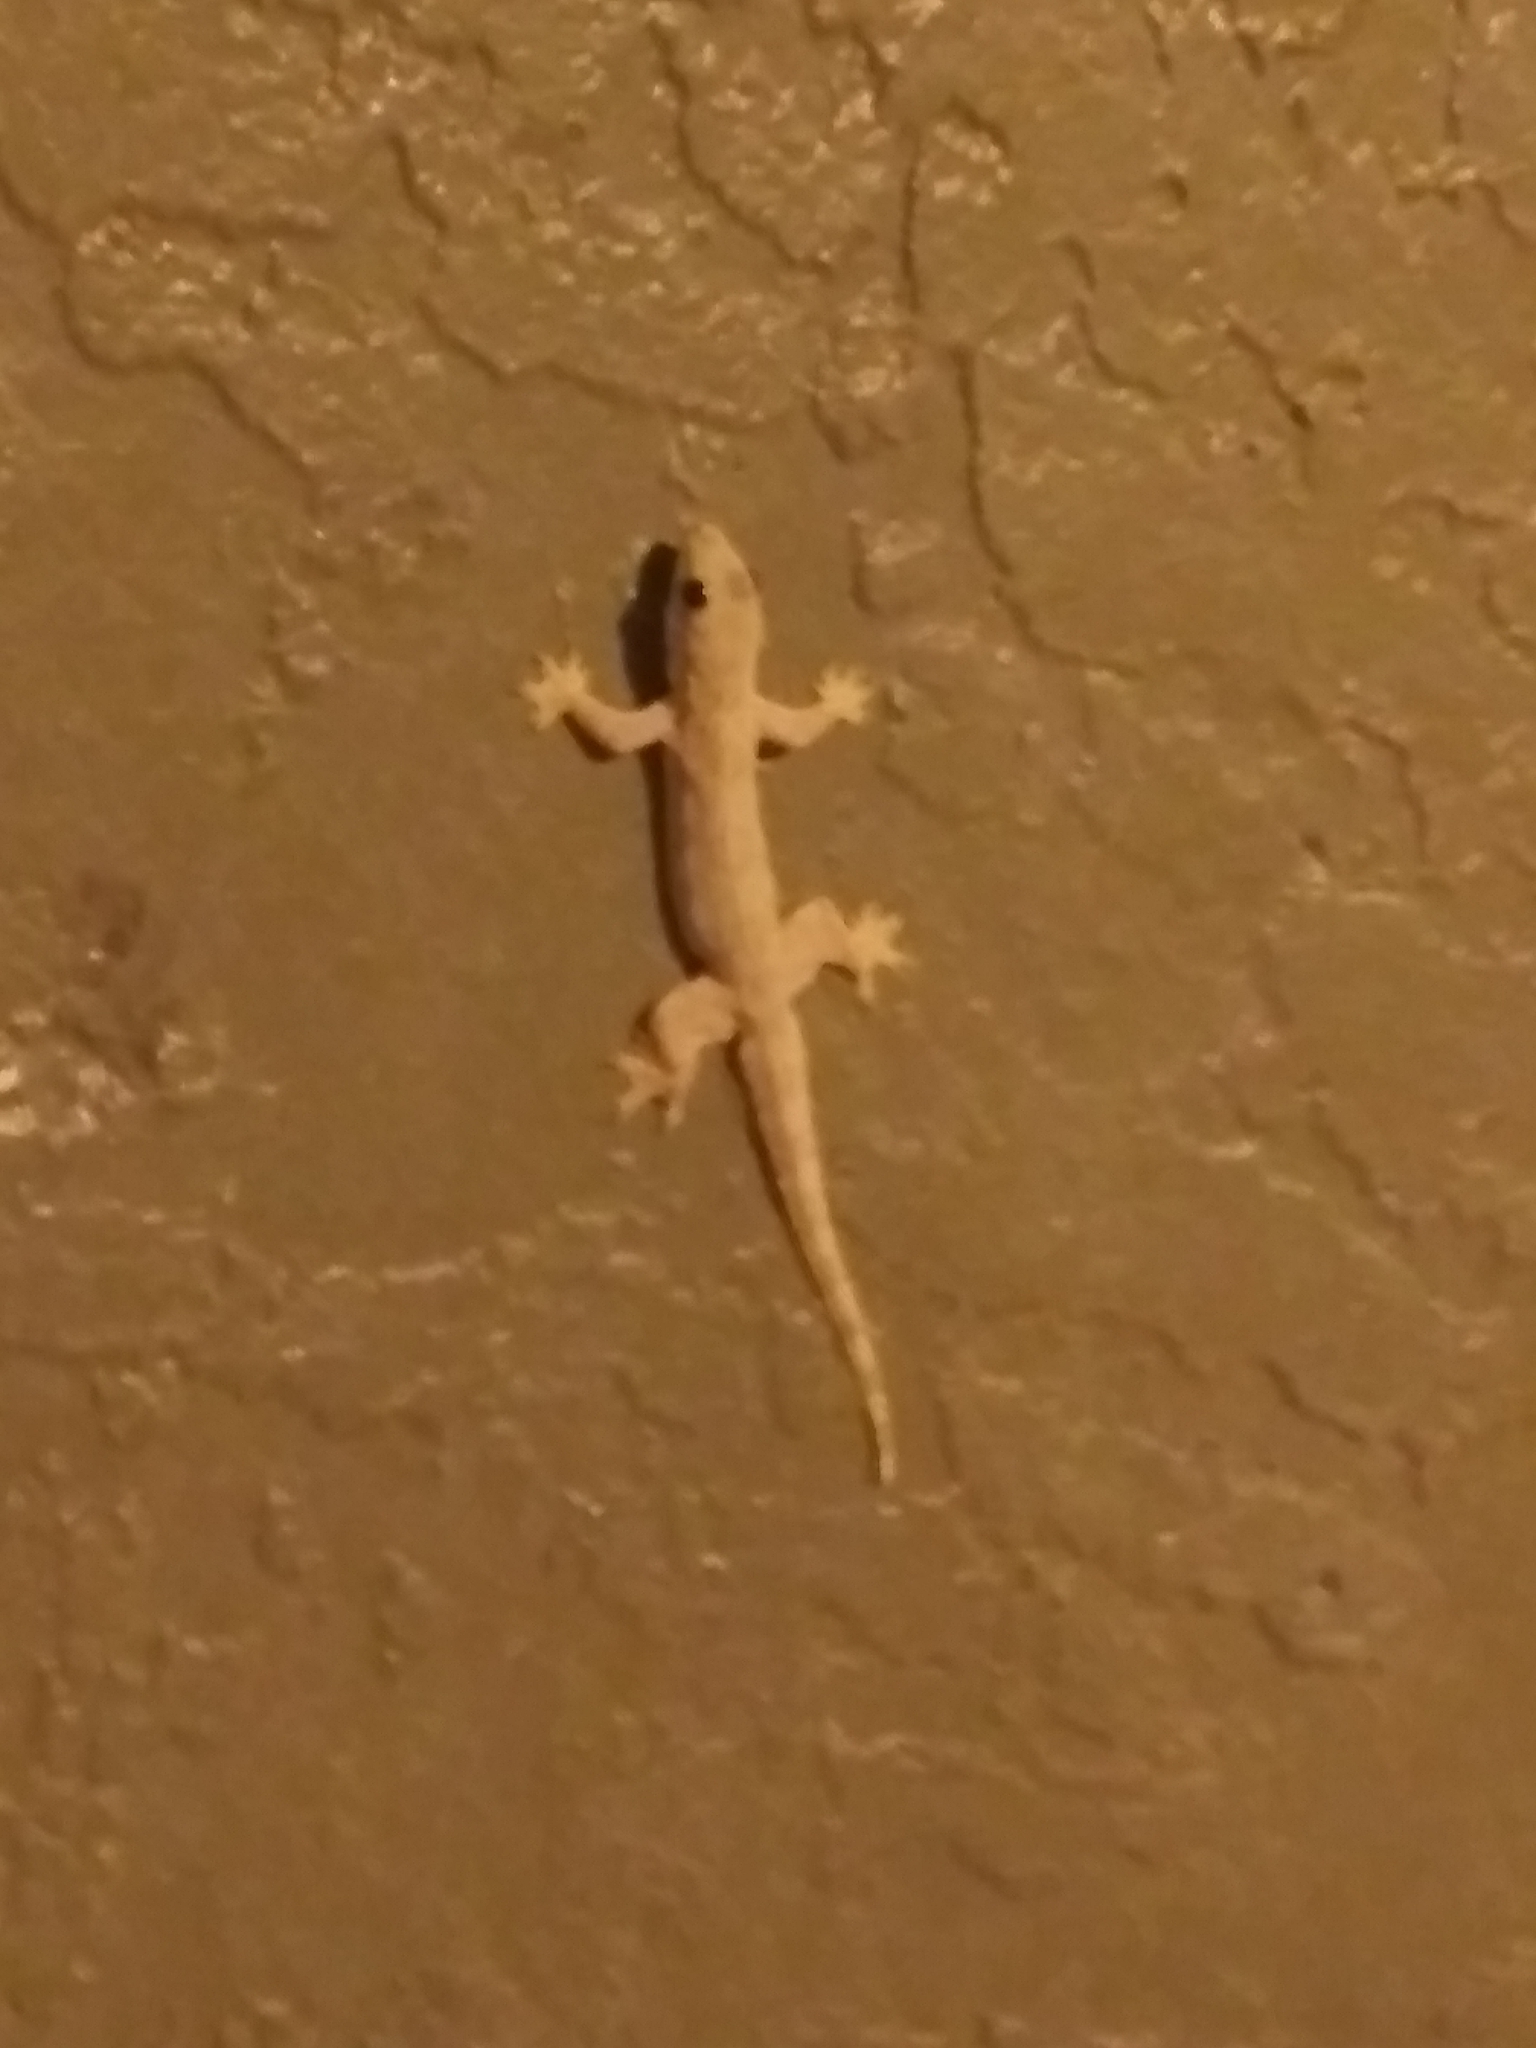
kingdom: Animalia
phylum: Chordata
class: Squamata
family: Gekkonidae
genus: Hemidactylus
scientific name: Hemidactylus platyurus
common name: Flat-tailed house gecko
